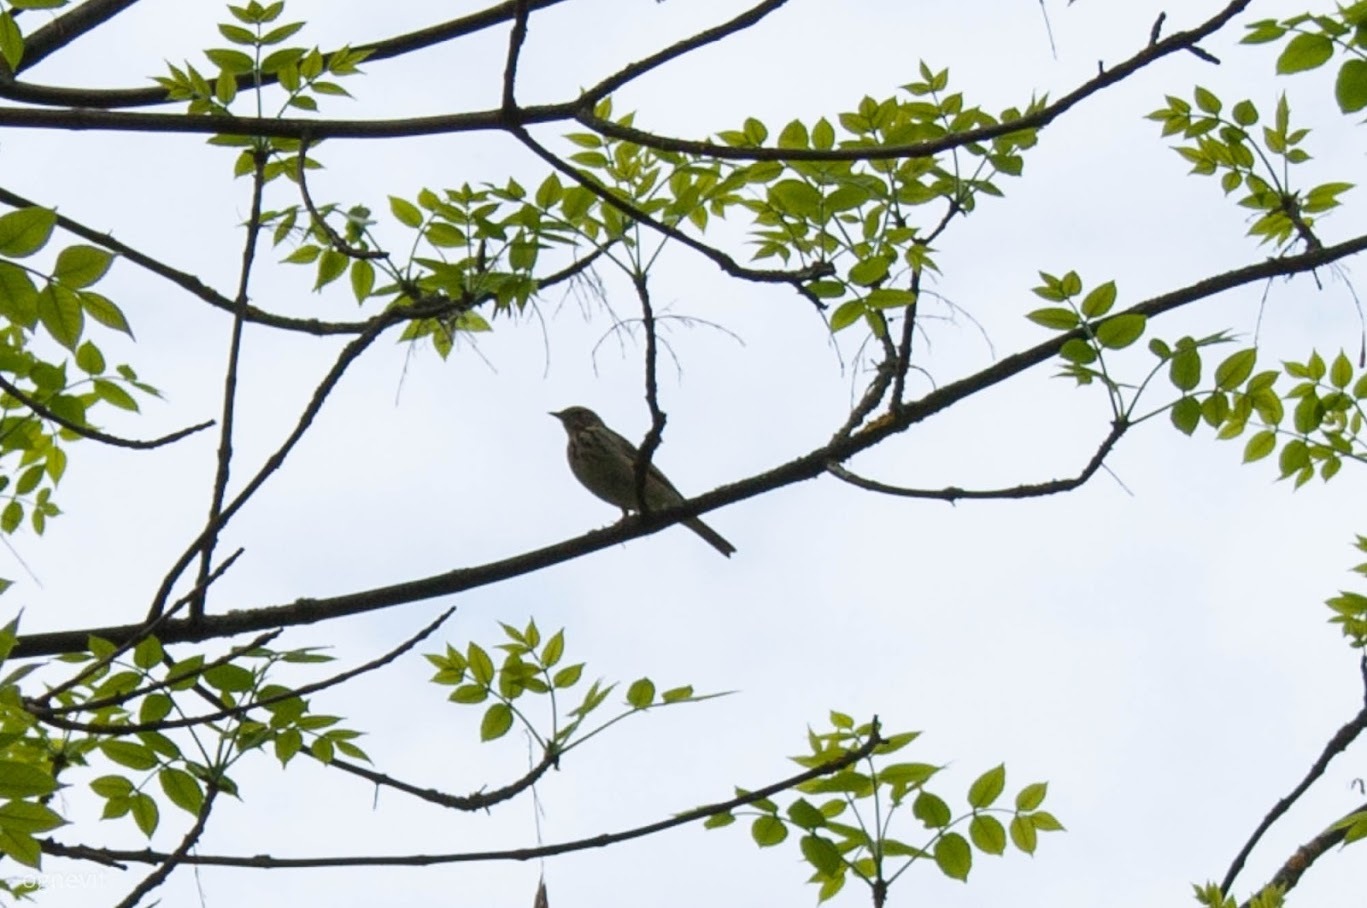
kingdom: Animalia
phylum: Chordata
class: Aves
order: Passeriformes
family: Motacillidae
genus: Anthus
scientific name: Anthus trivialis
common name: Tree pipit
